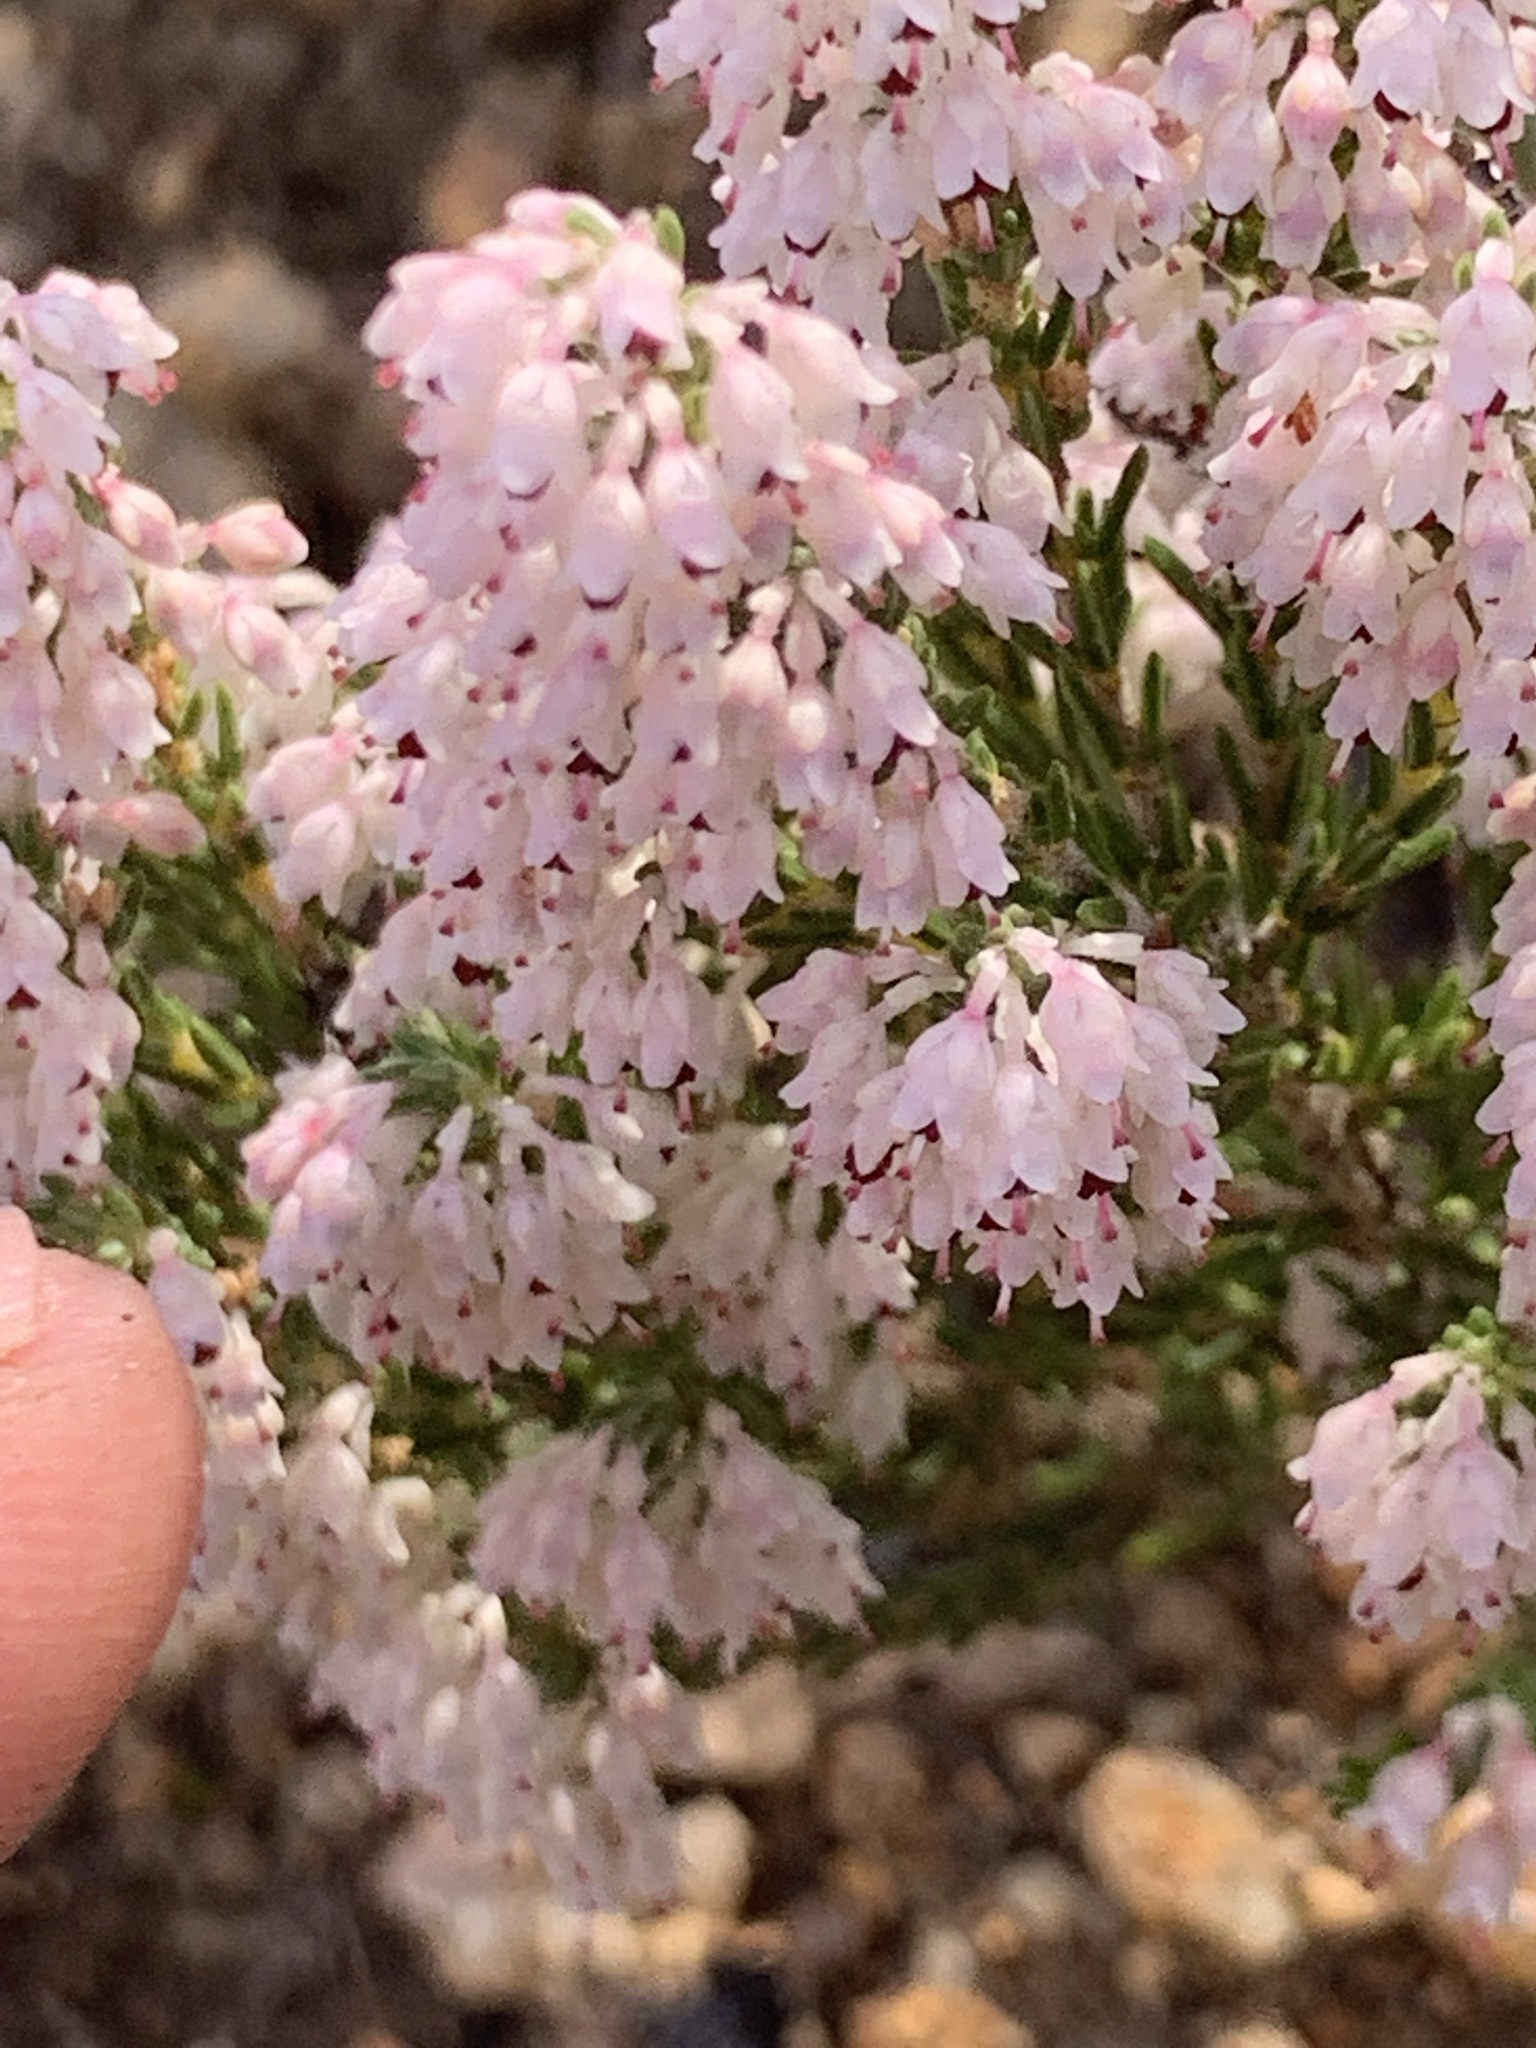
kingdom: Plantae
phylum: Tracheophyta
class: Magnoliopsida
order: Ericales
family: Ericaceae
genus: Erica
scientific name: Erica paniculata
